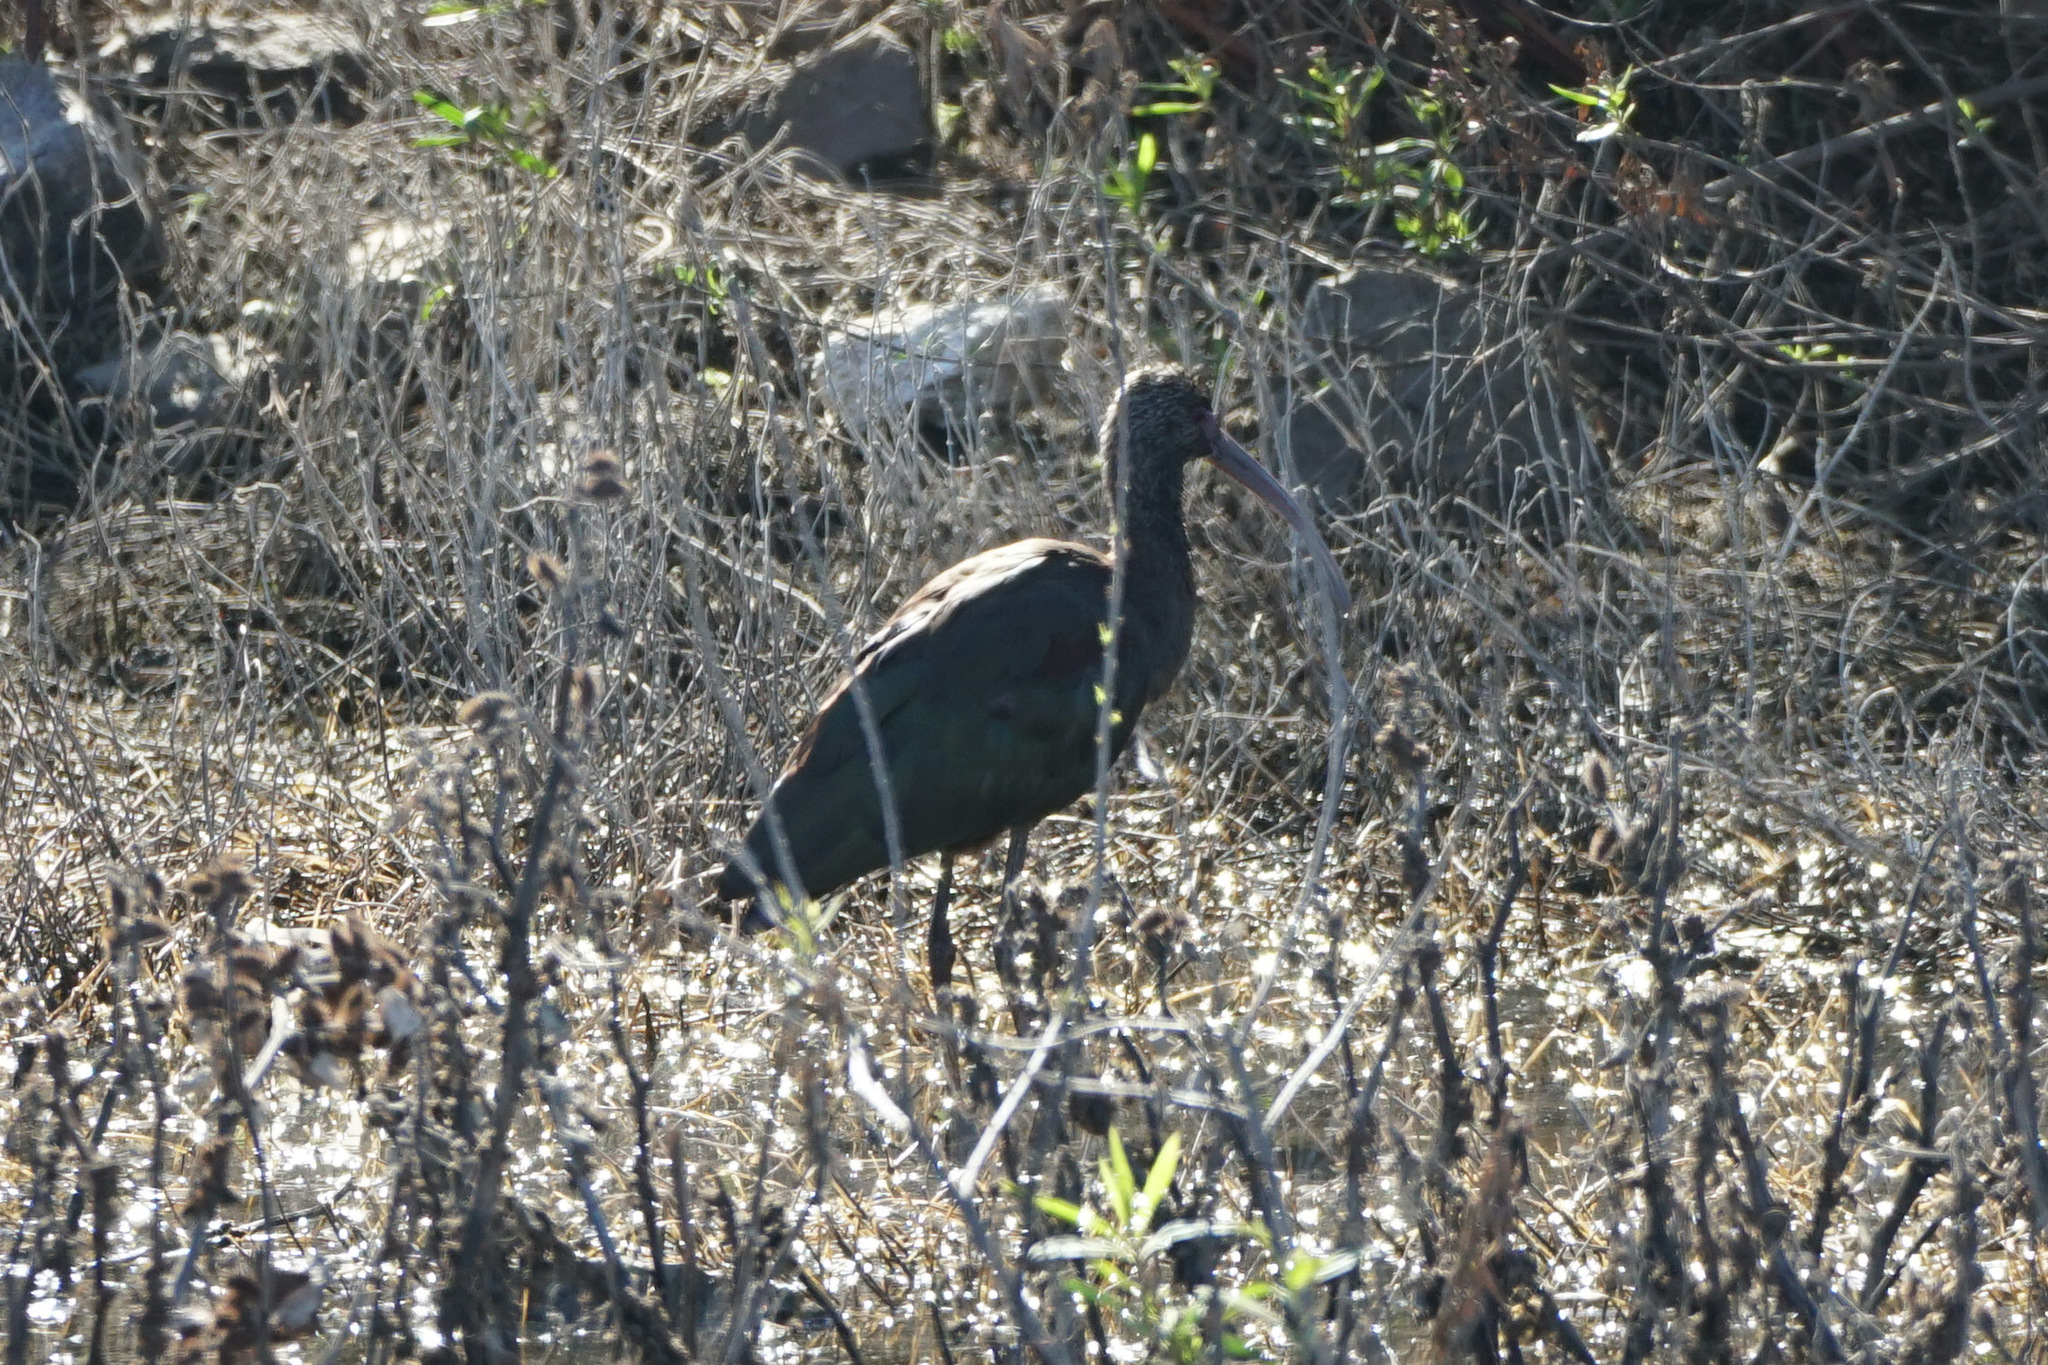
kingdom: Animalia
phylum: Chordata
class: Aves
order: Pelecaniformes
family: Threskiornithidae
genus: Plegadis
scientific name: Plegadis chihi
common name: White-faced ibis
